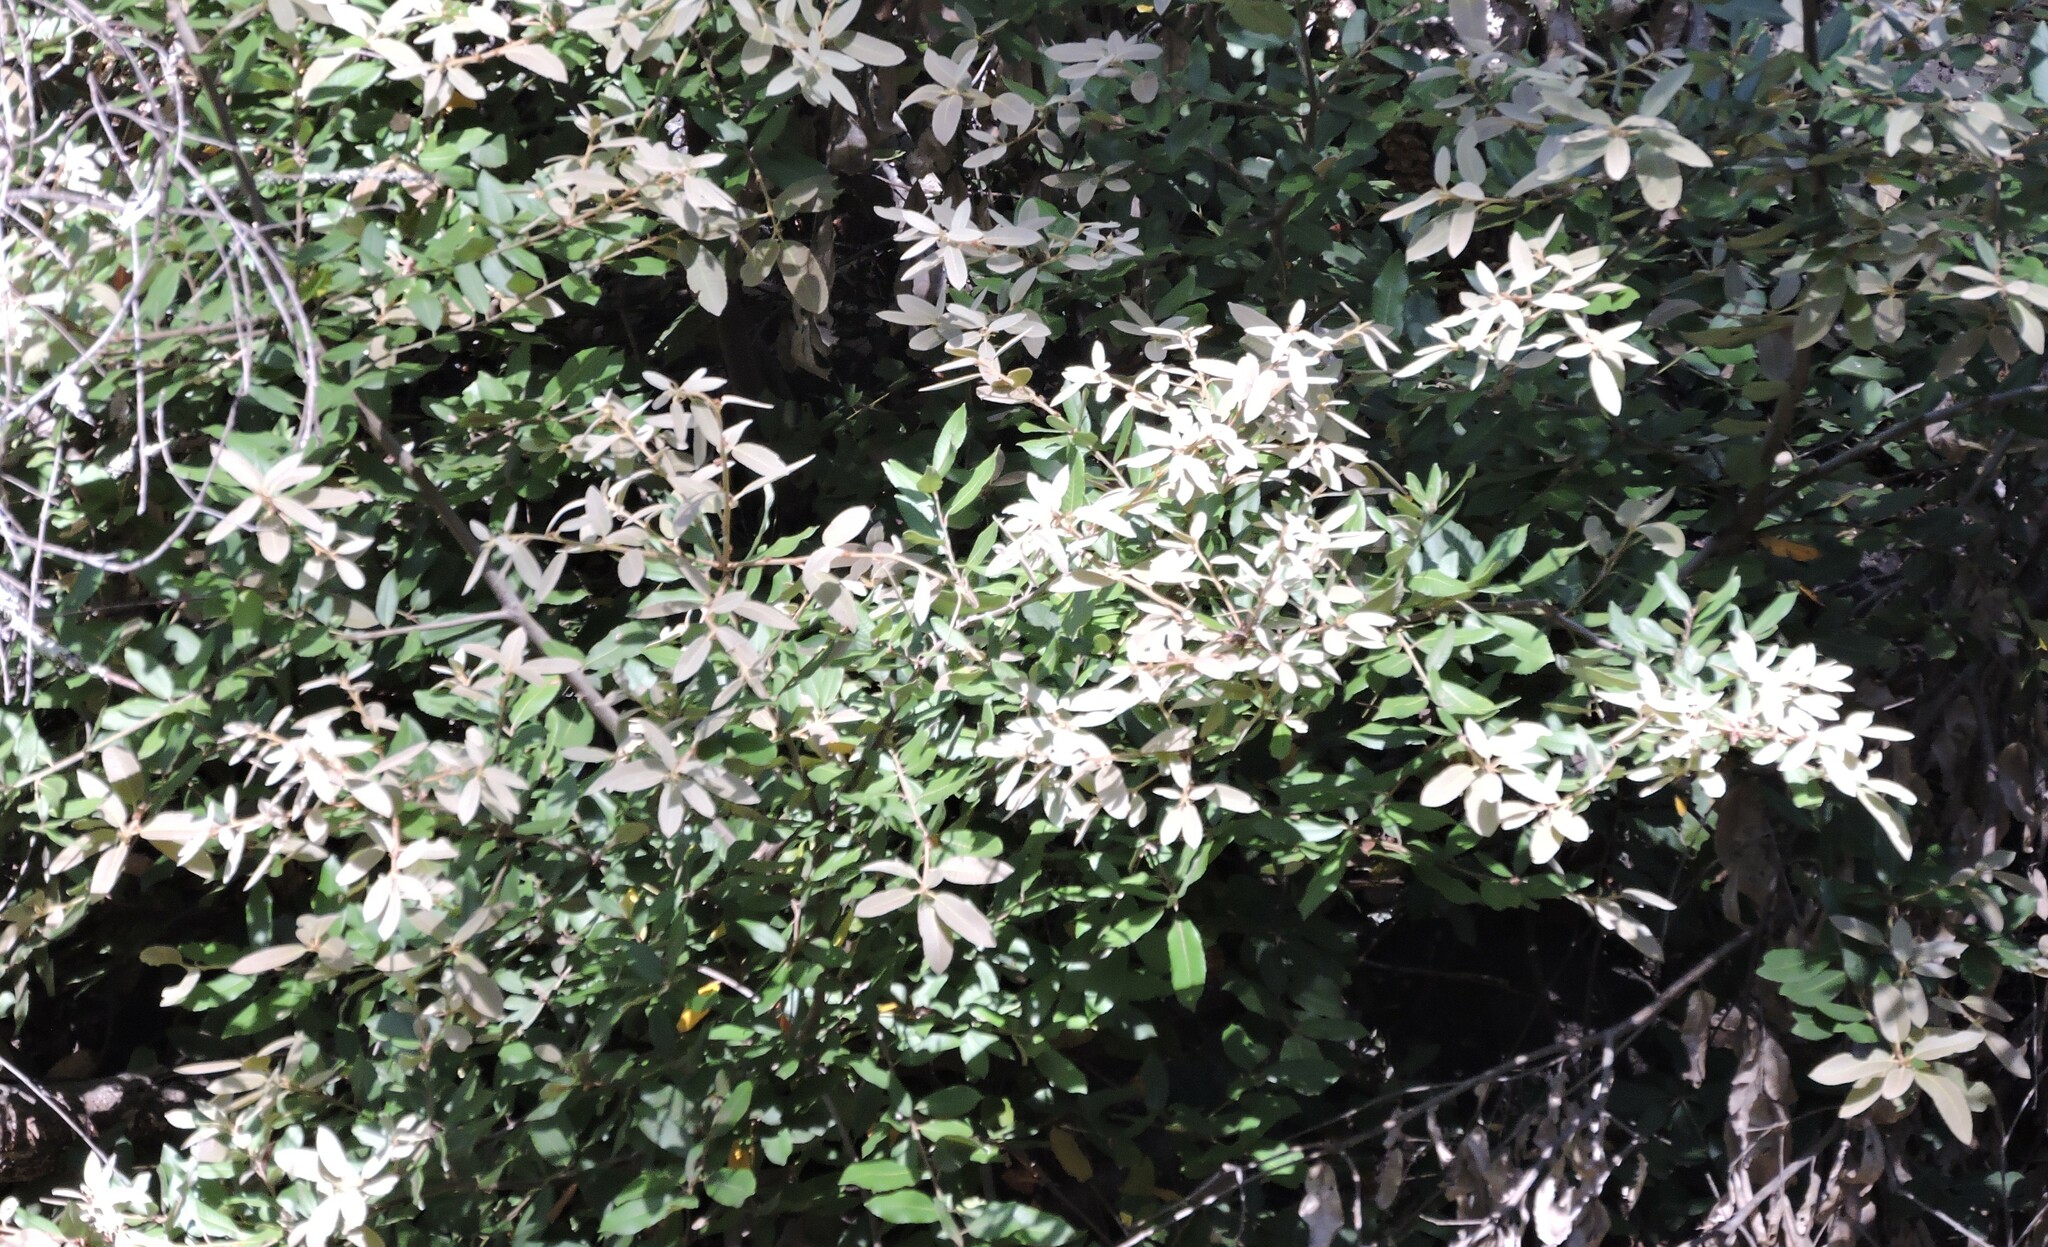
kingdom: Plantae
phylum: Tracheophyta
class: Magnoliopsida
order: Fagales
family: Fagaceae
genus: Notholithocarpus
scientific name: Notholithocarpus densiflorus
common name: Tan bark oak
